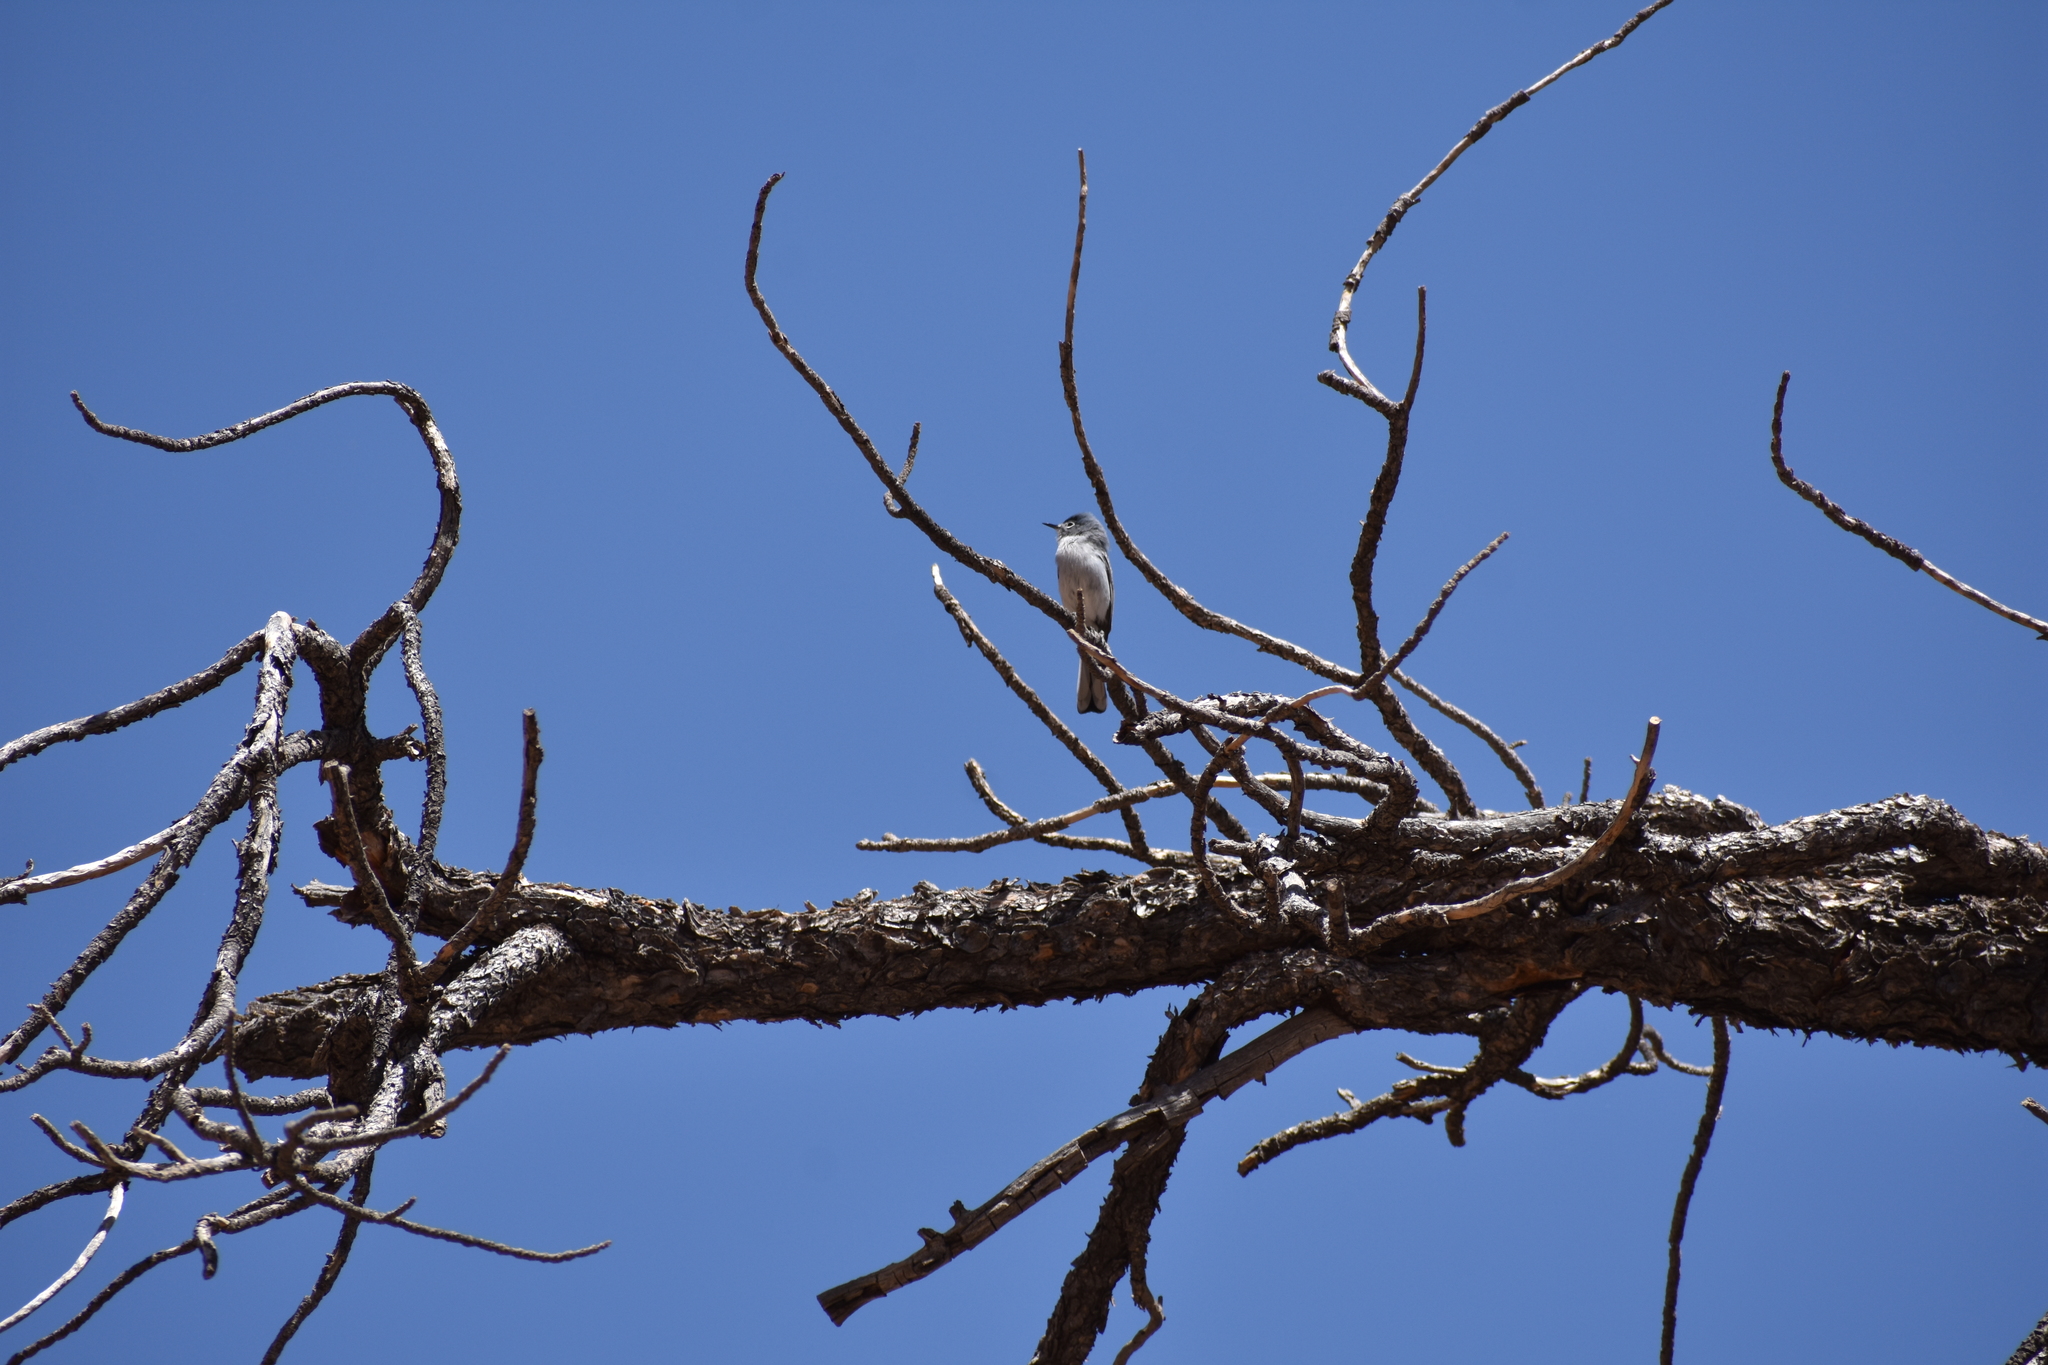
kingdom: Animalia
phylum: Chordata
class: Aves
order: Passeriformes
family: Polioptilidae
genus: Polioptila
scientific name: Polioptila caerulea
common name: Blue-gray gnatcatcher
